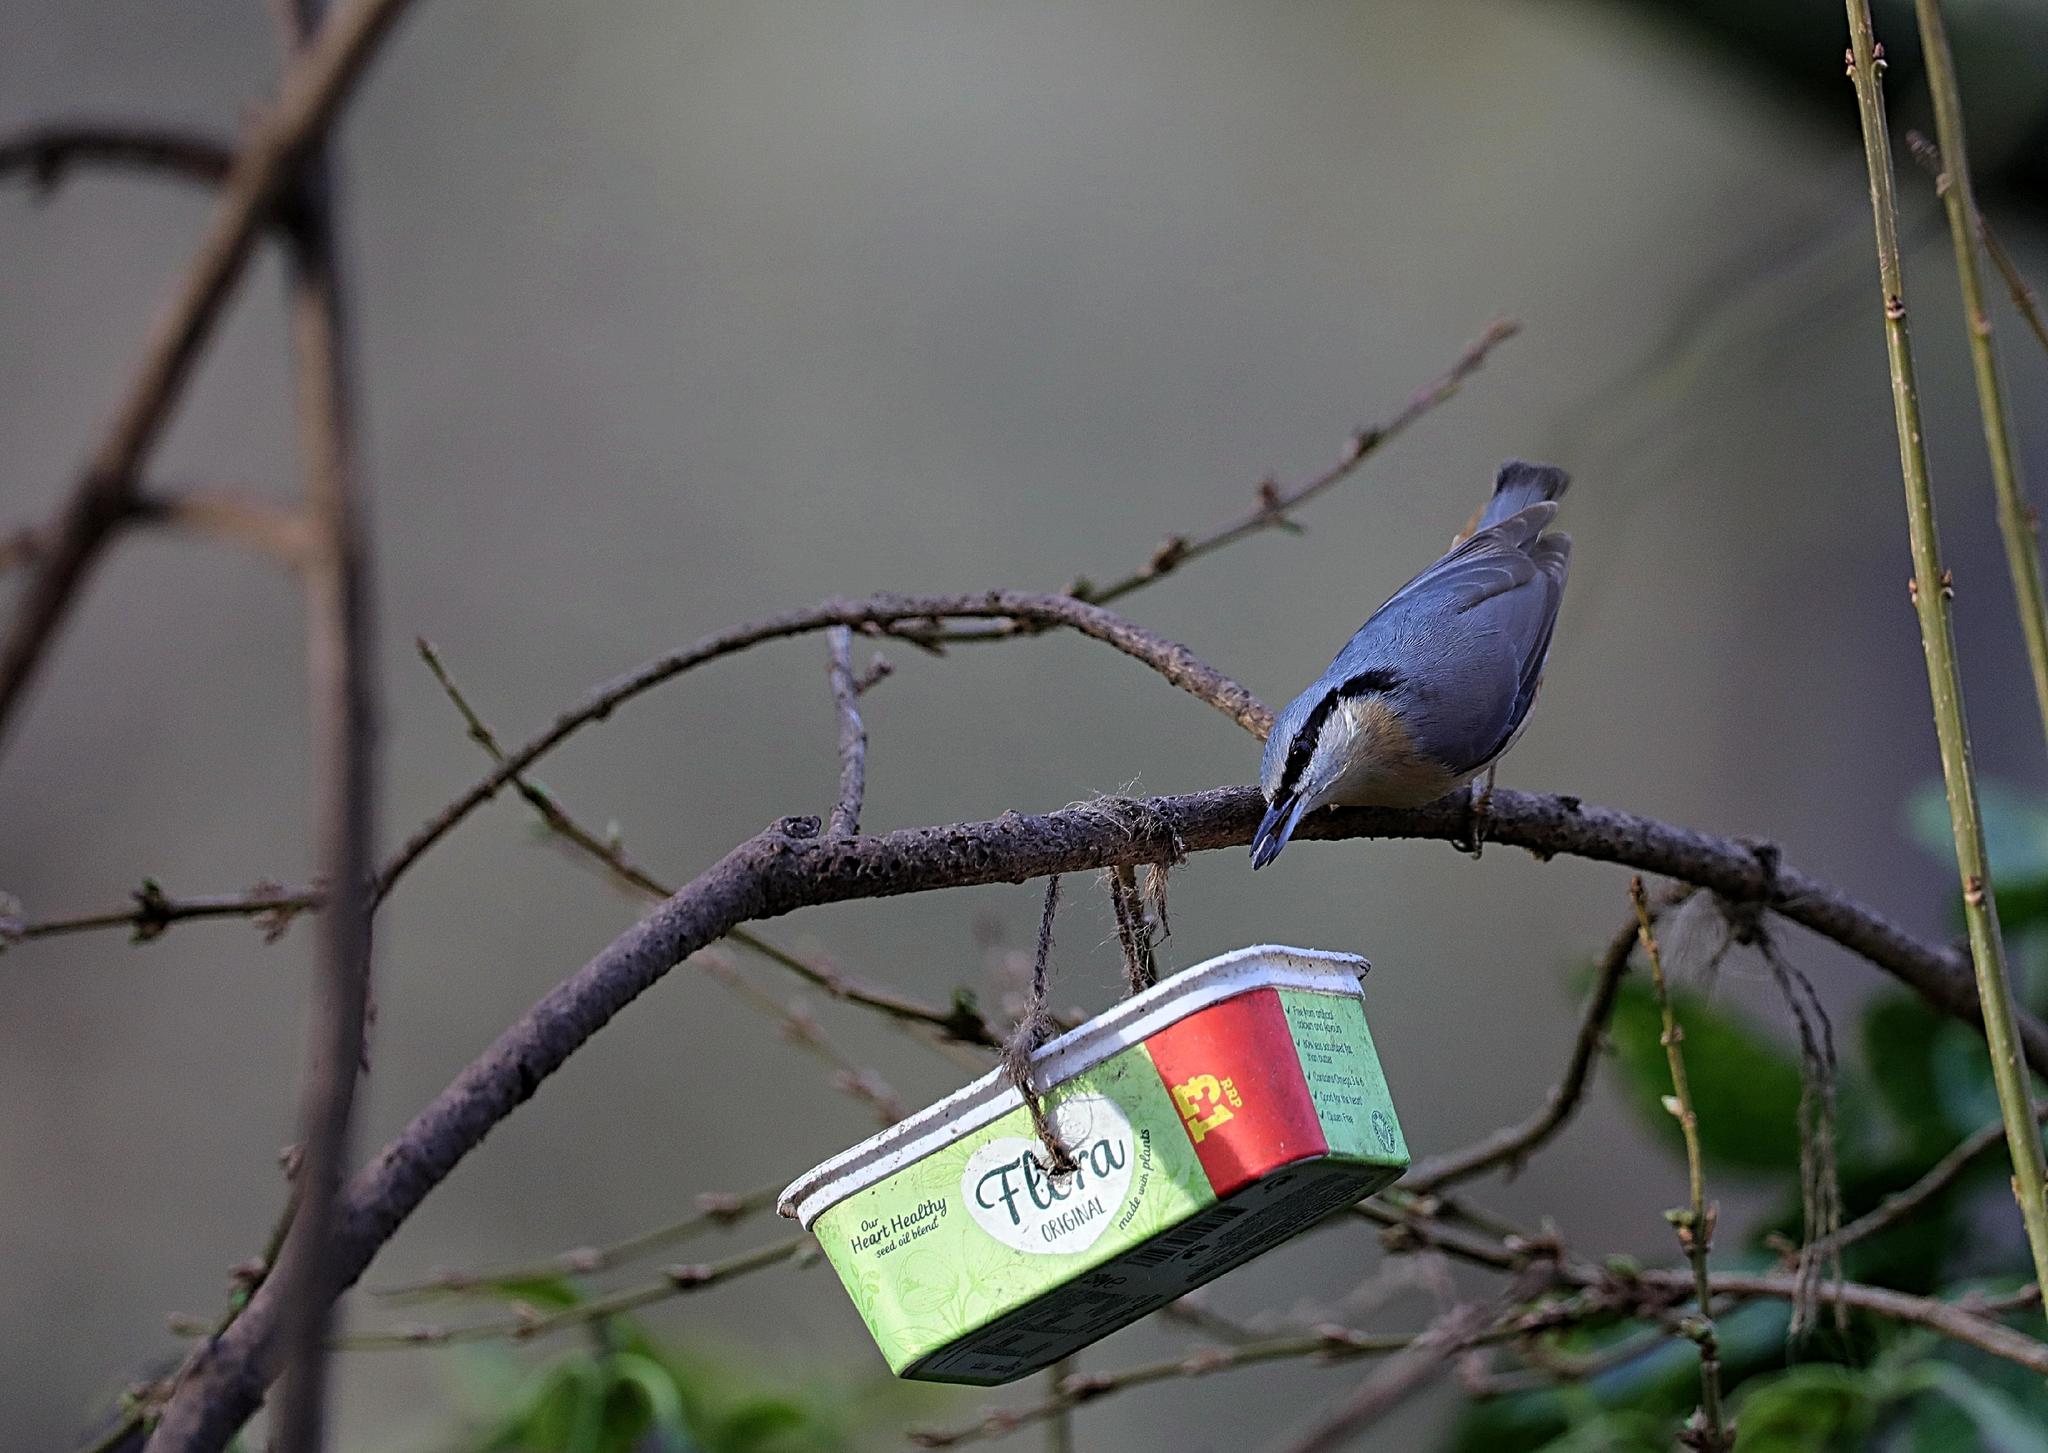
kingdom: Animalia
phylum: Chordata
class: Aves
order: Passeriformes
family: Sittidae
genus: Sitta
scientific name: Sitta europaea
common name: Eurasian nuthatch
